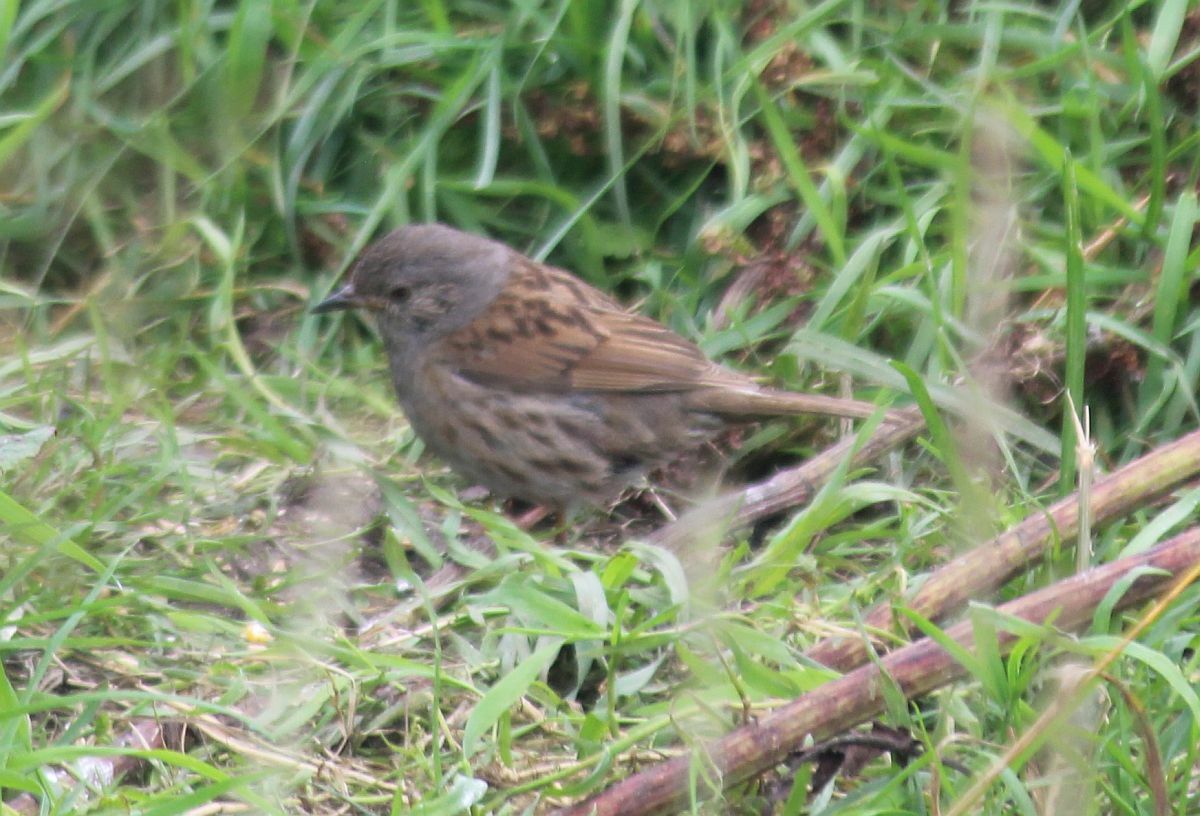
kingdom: Animalia
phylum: Chordata
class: Aves
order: Passeriformes
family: Prunellidae
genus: Prunella
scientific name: Prunella modularis
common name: Dunnock
